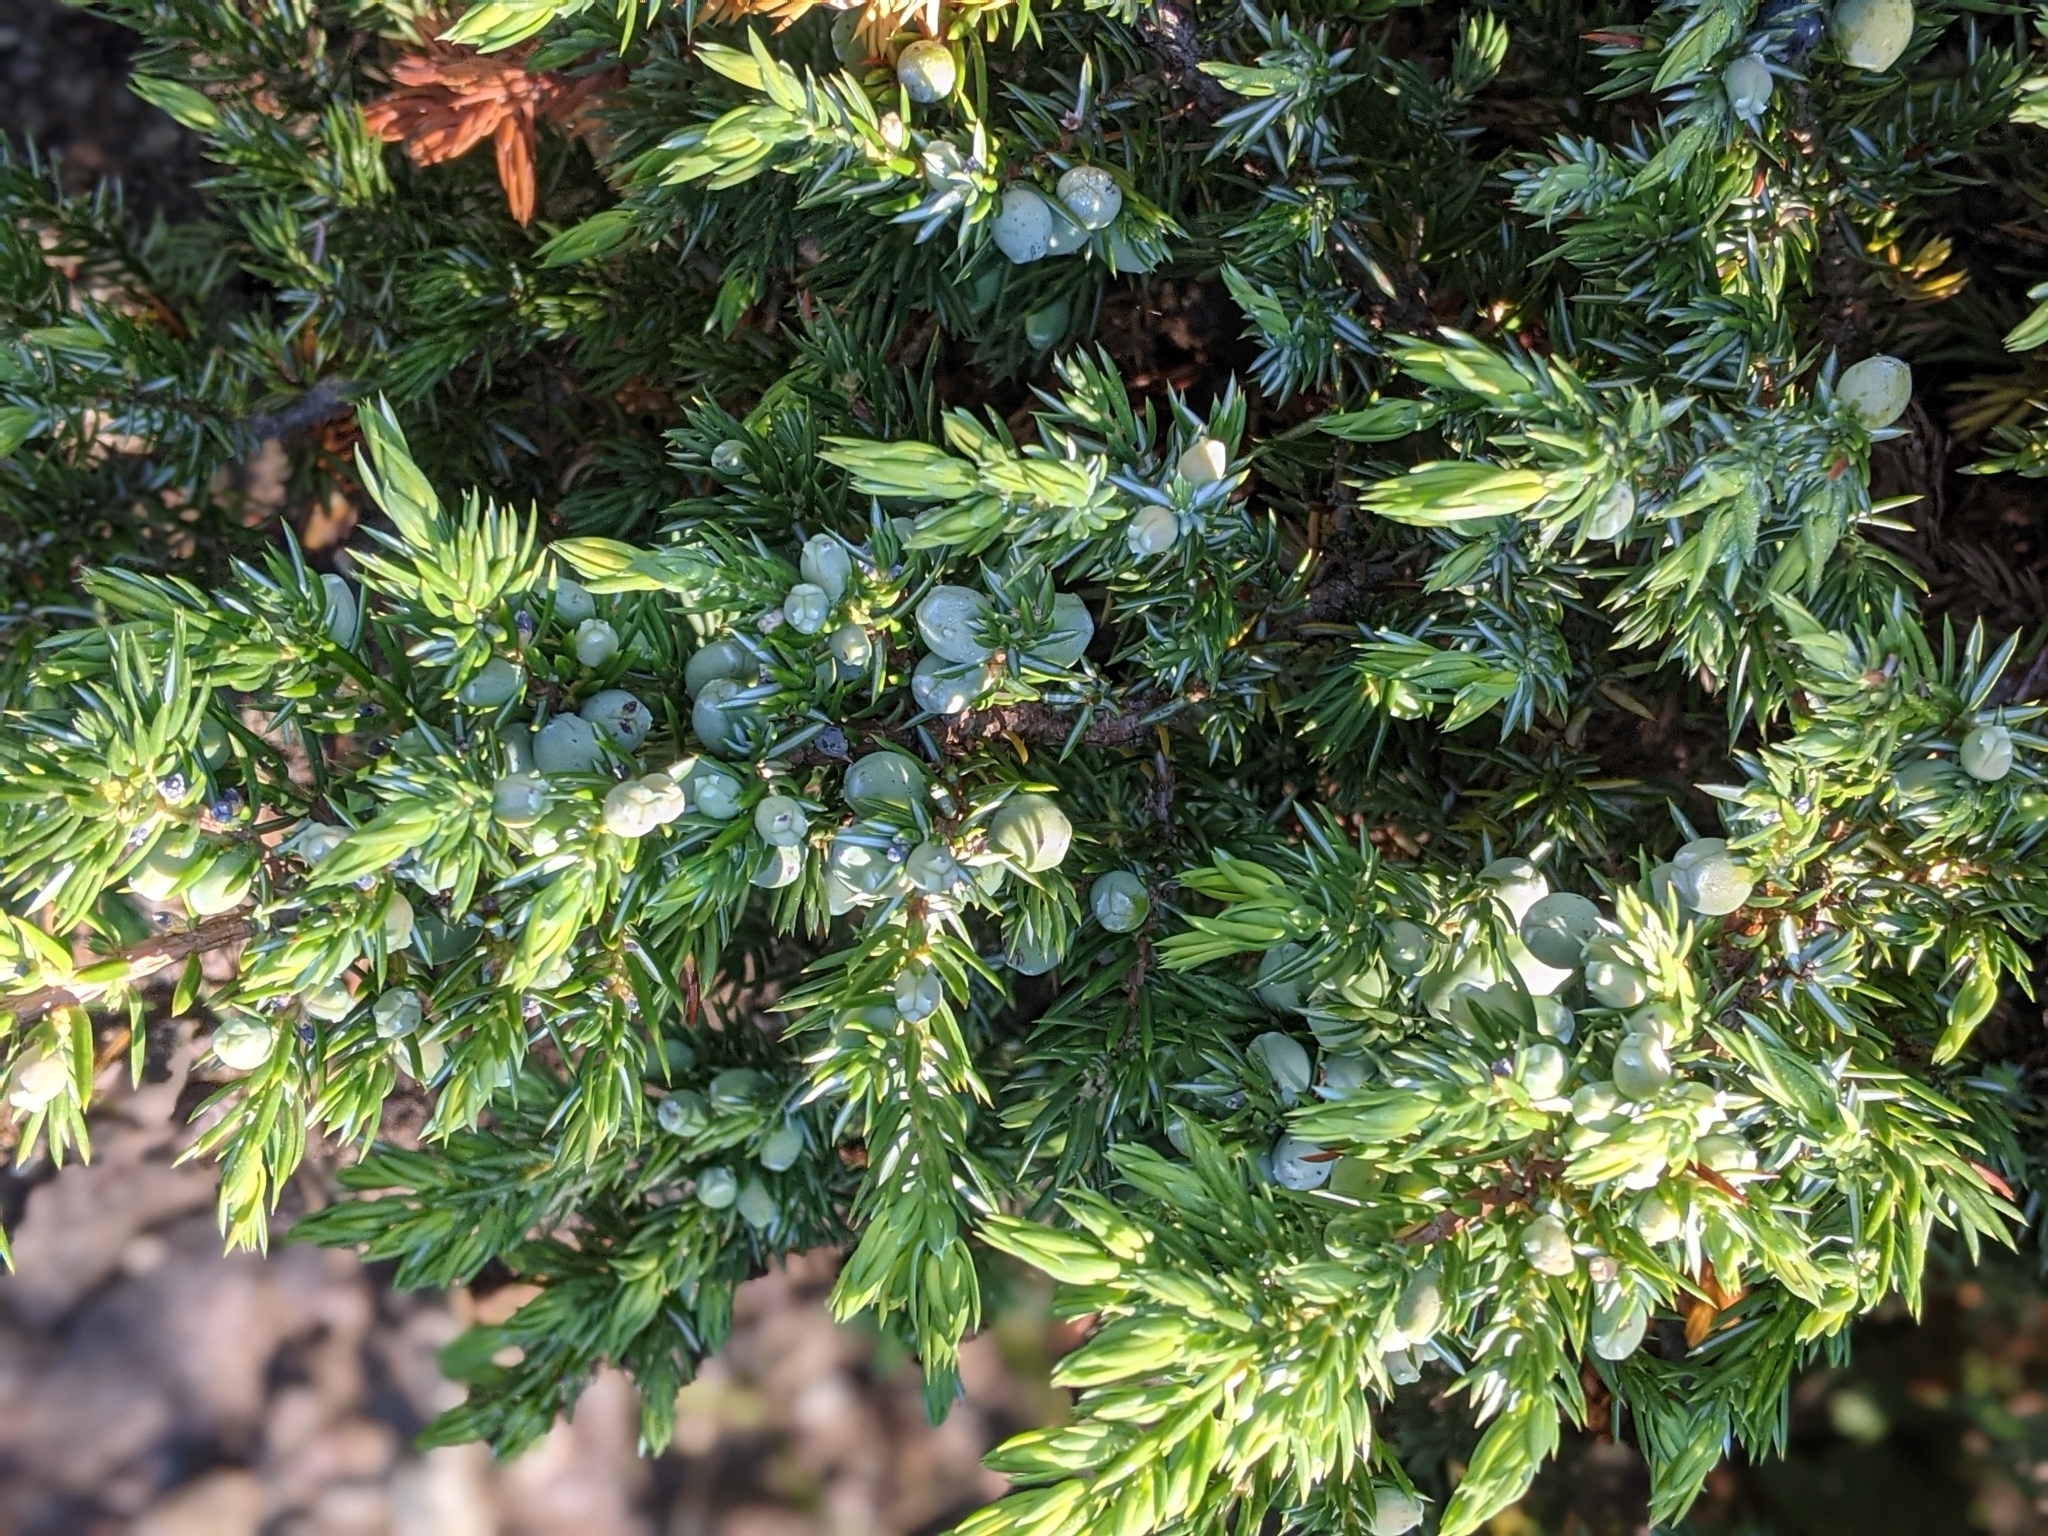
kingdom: Plantae
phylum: Tracheophyta
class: Pinopsida
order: Pinales
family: Cupressaceae
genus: Juniperus
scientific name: Juniperus communis
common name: Common juniper
